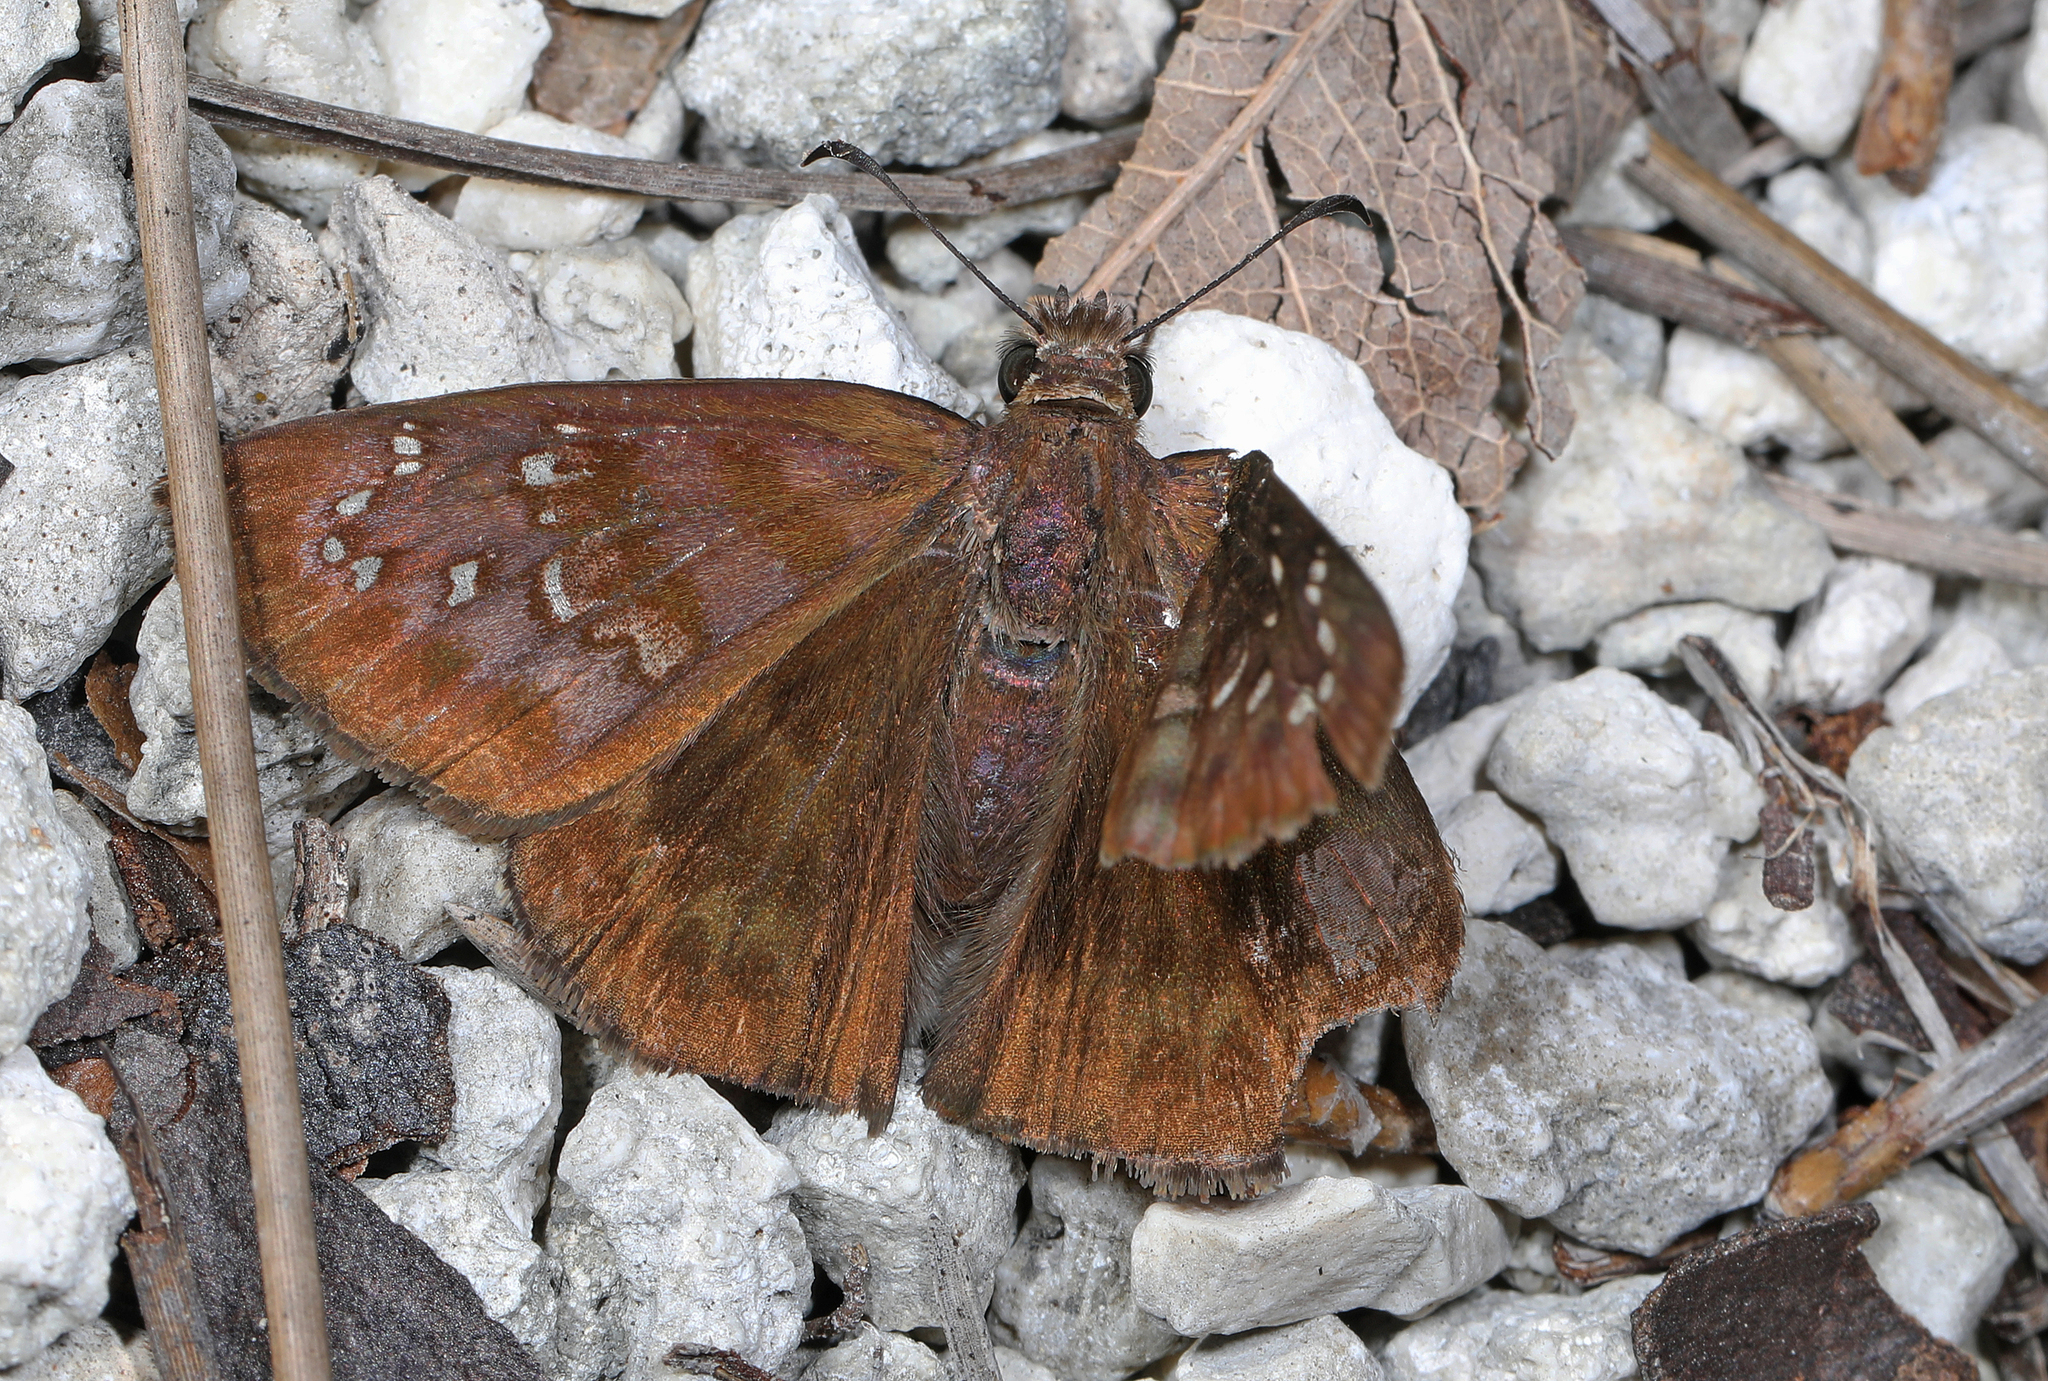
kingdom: Animalia
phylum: Arthropoda
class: Insecta
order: Lepidoptera
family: Hesperiidae
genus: Ephyriades
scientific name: Ephyriades brunnea
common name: Florida duskywing
